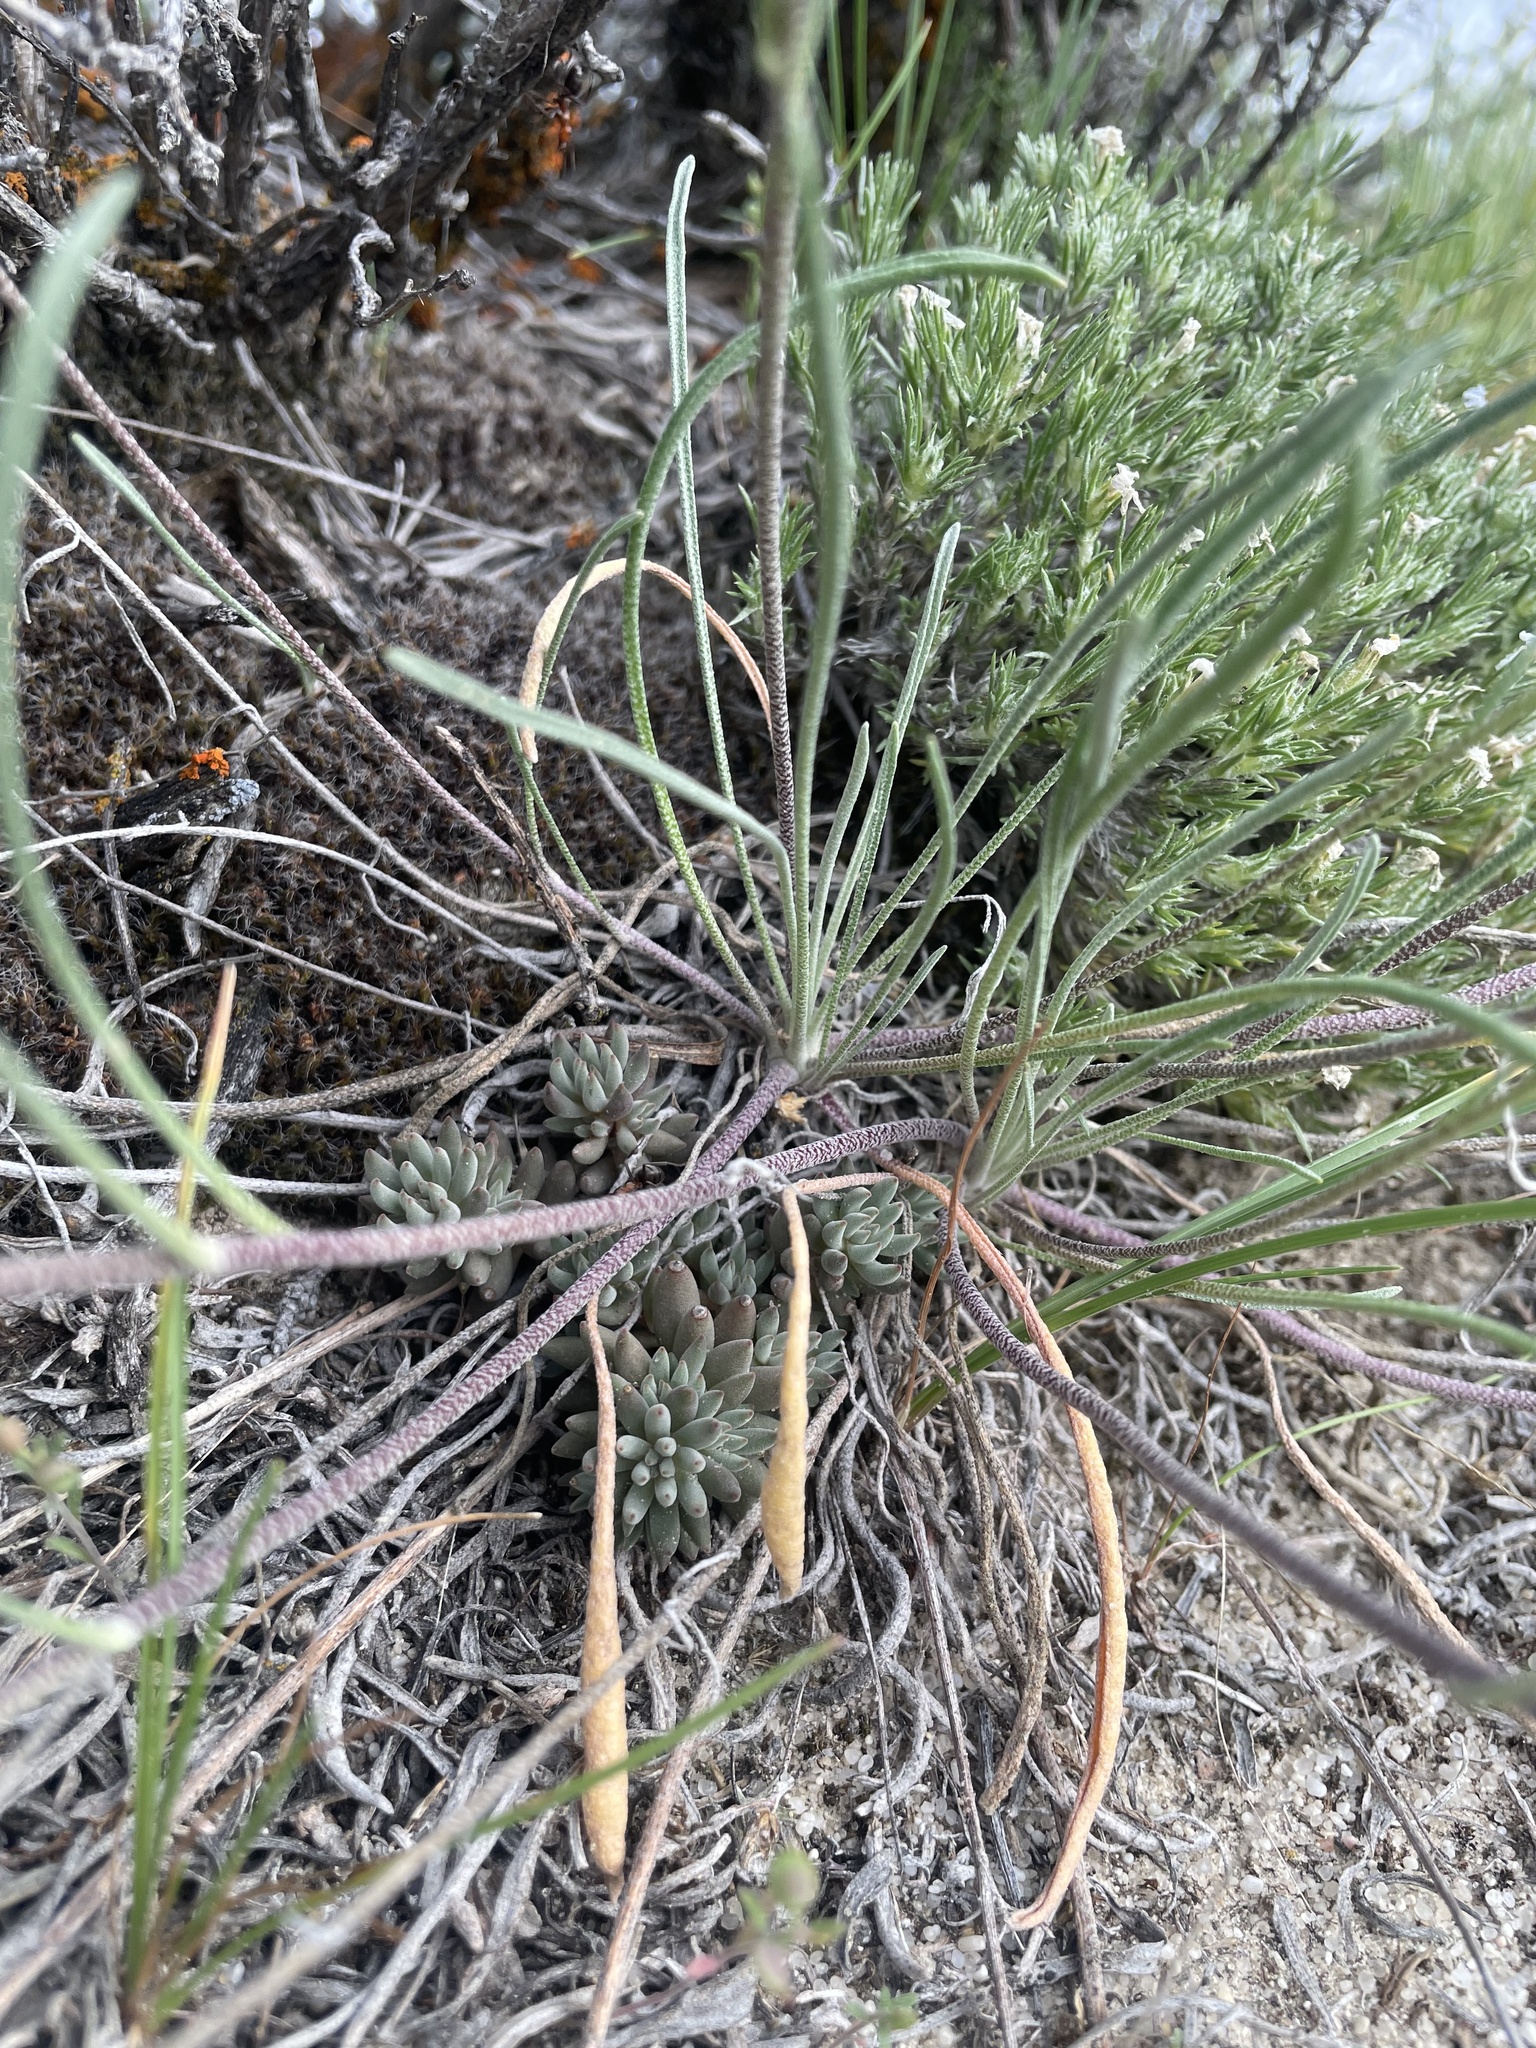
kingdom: Plantae
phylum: Tracheophyta
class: Magnoliopsida
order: Saxifragales
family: Crassulaceae
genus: Sedum
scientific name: Sedum lanceolatum
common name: Common stonecrop
